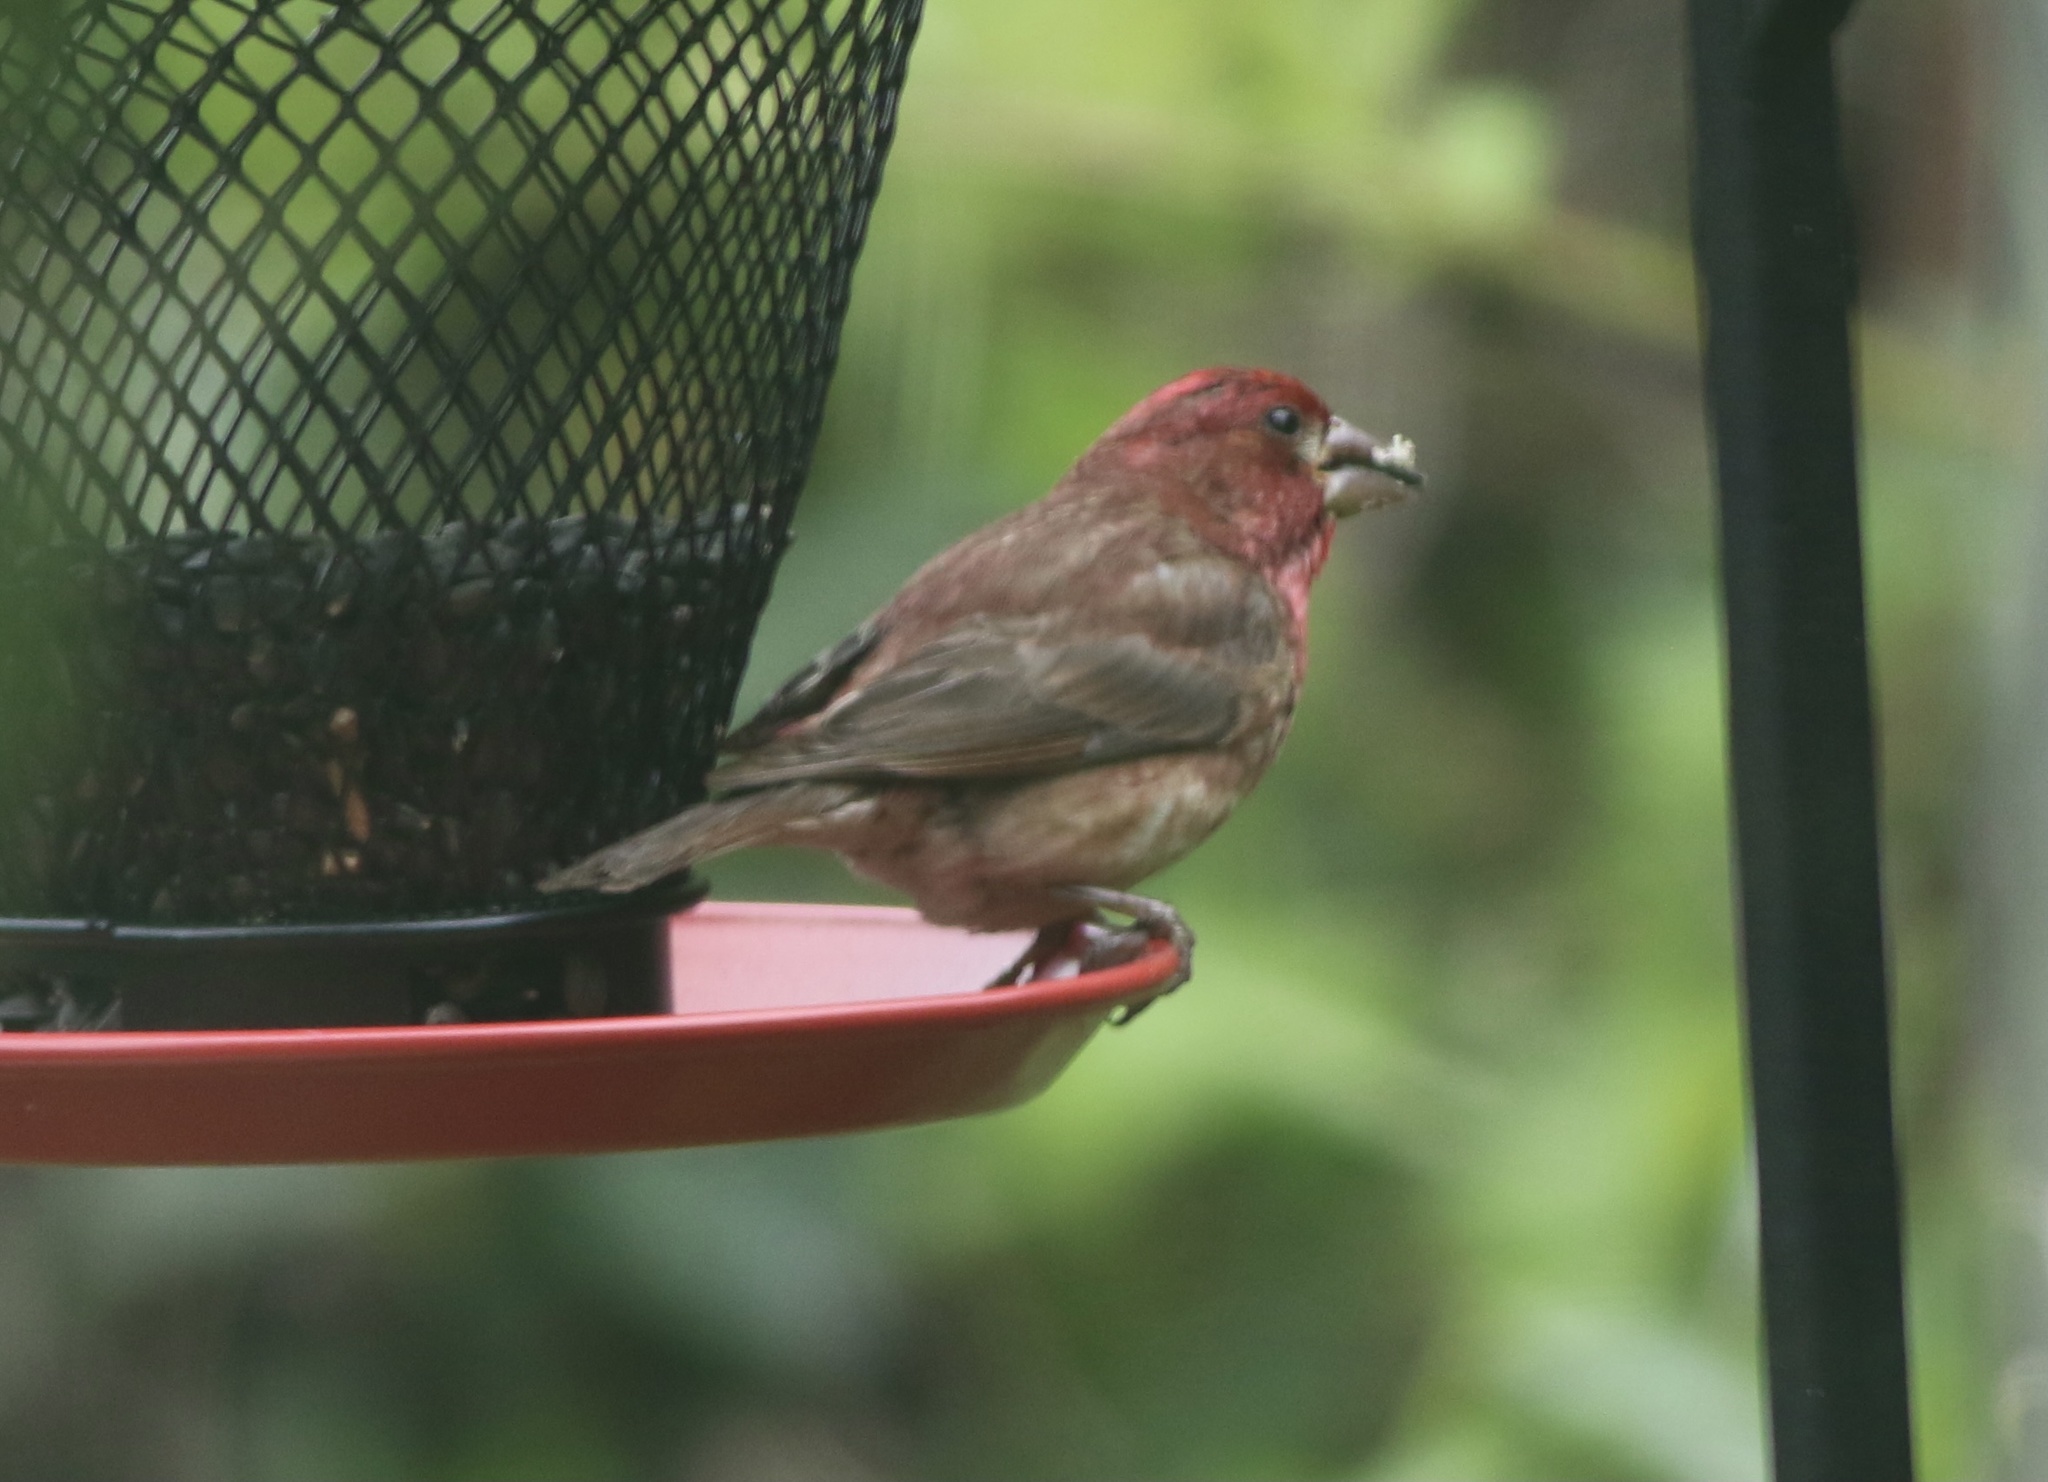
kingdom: Animalia
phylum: Chordata
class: Aves
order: Passeriformes
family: Fringillidae
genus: Haemorhous
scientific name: Haemorhous purpureus
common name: Purple finch
